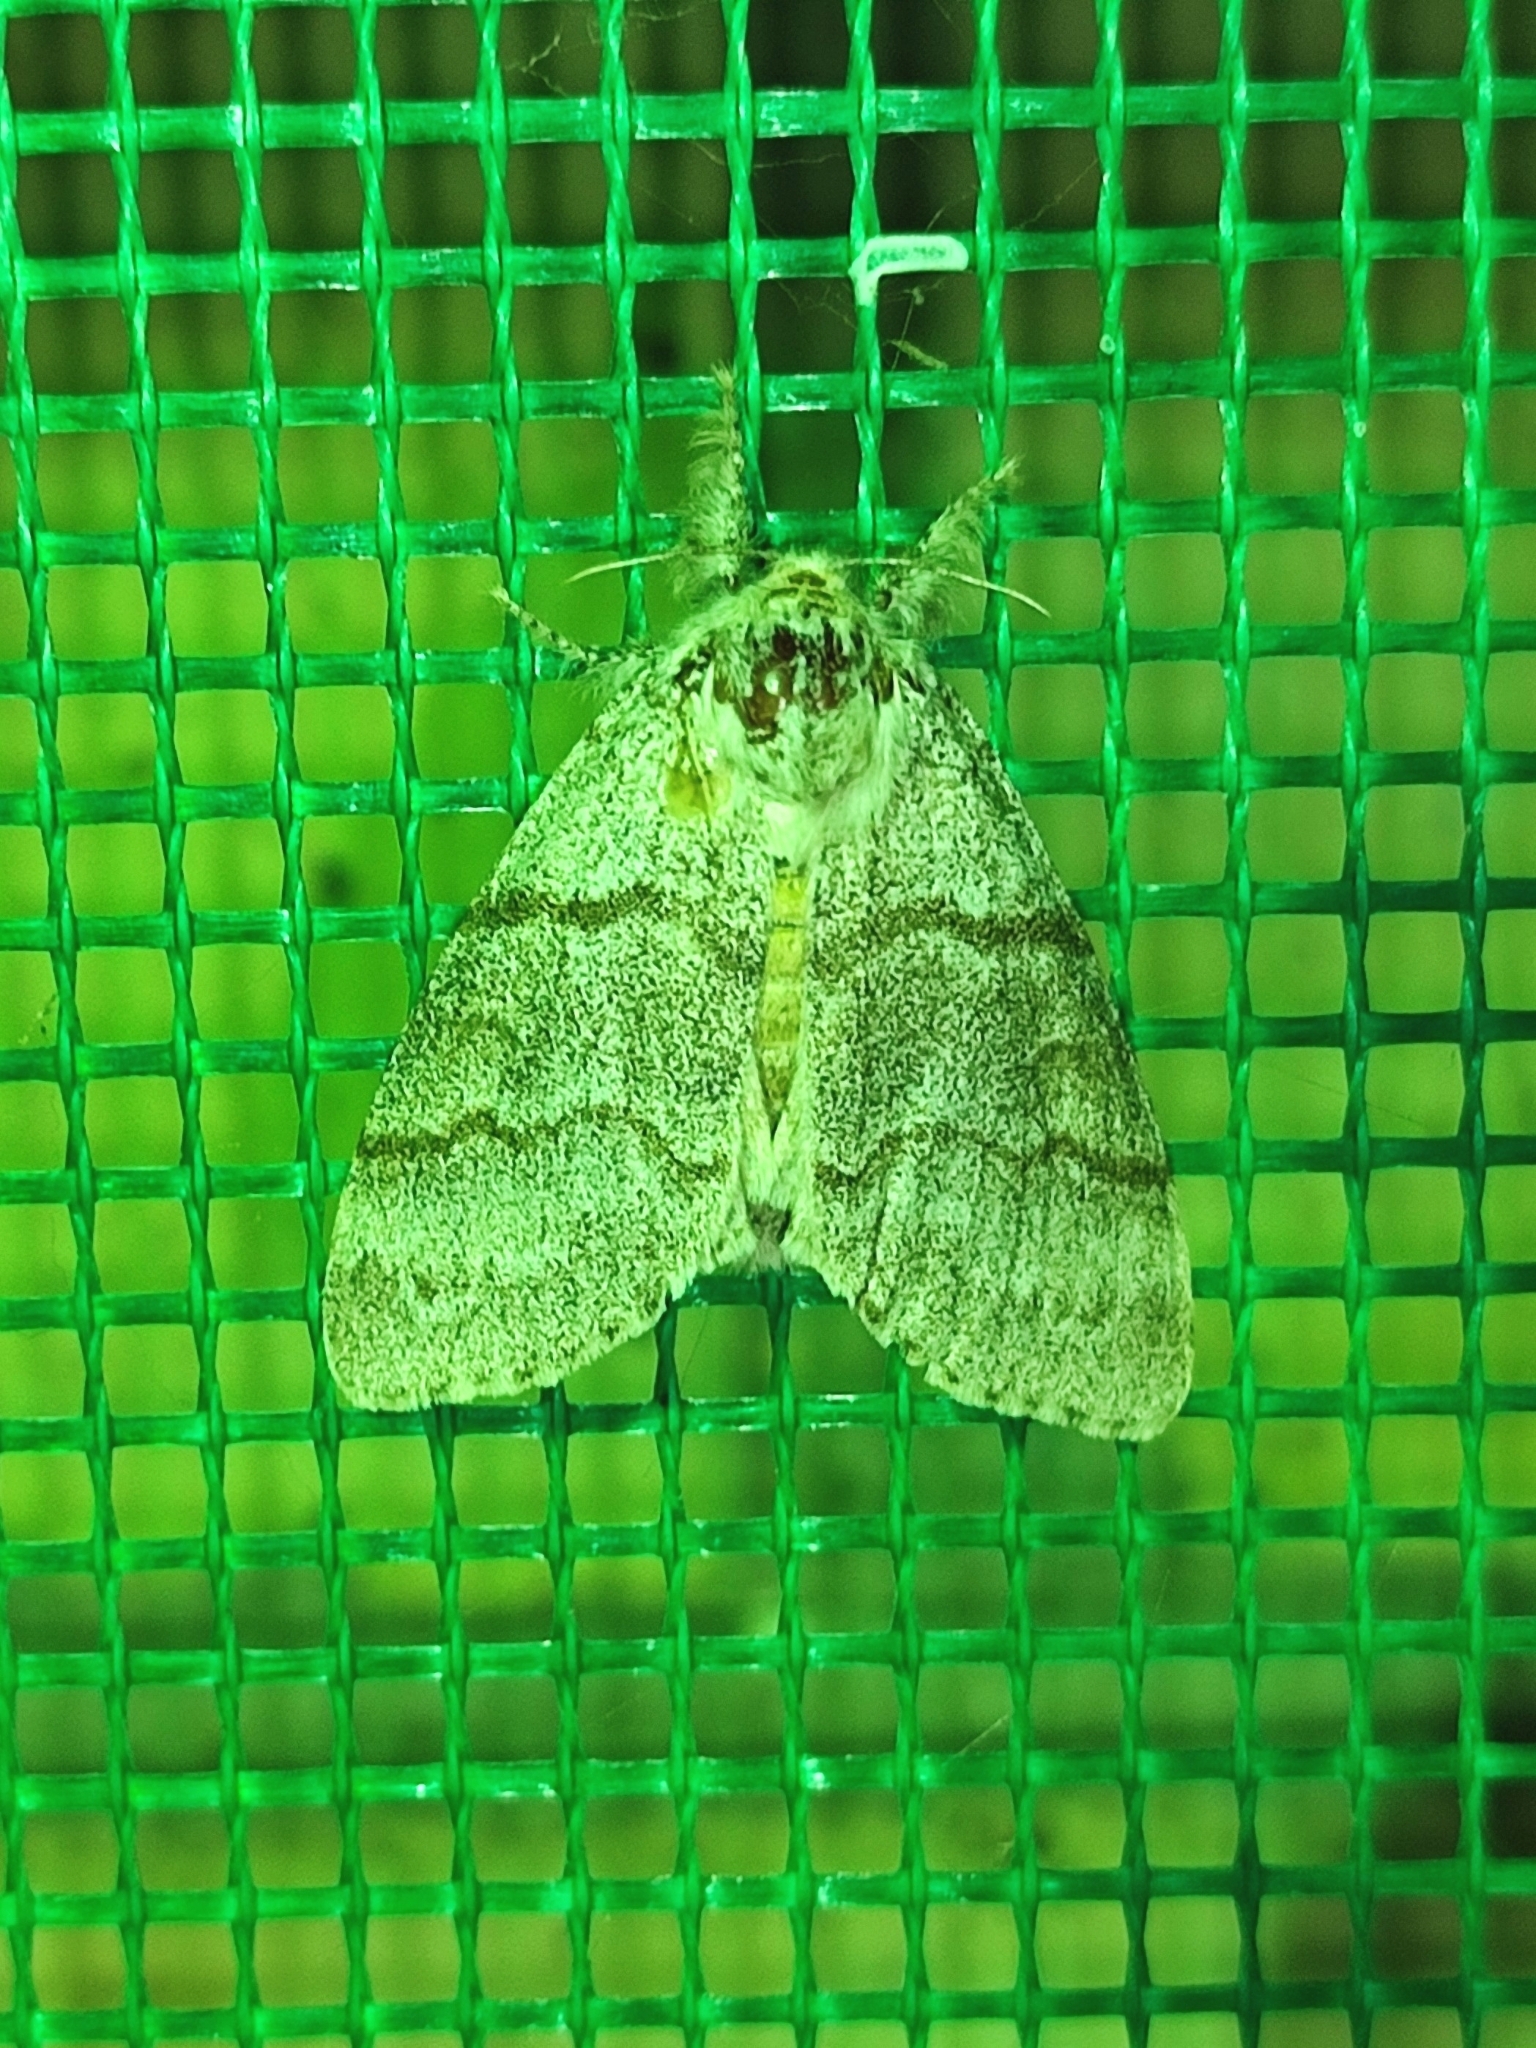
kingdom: Animalia
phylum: Arthropoda
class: Insecta
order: Lepidoptera
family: Erebidae
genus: Calliteara
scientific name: Calliteara pudibunda
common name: Pale tussock
